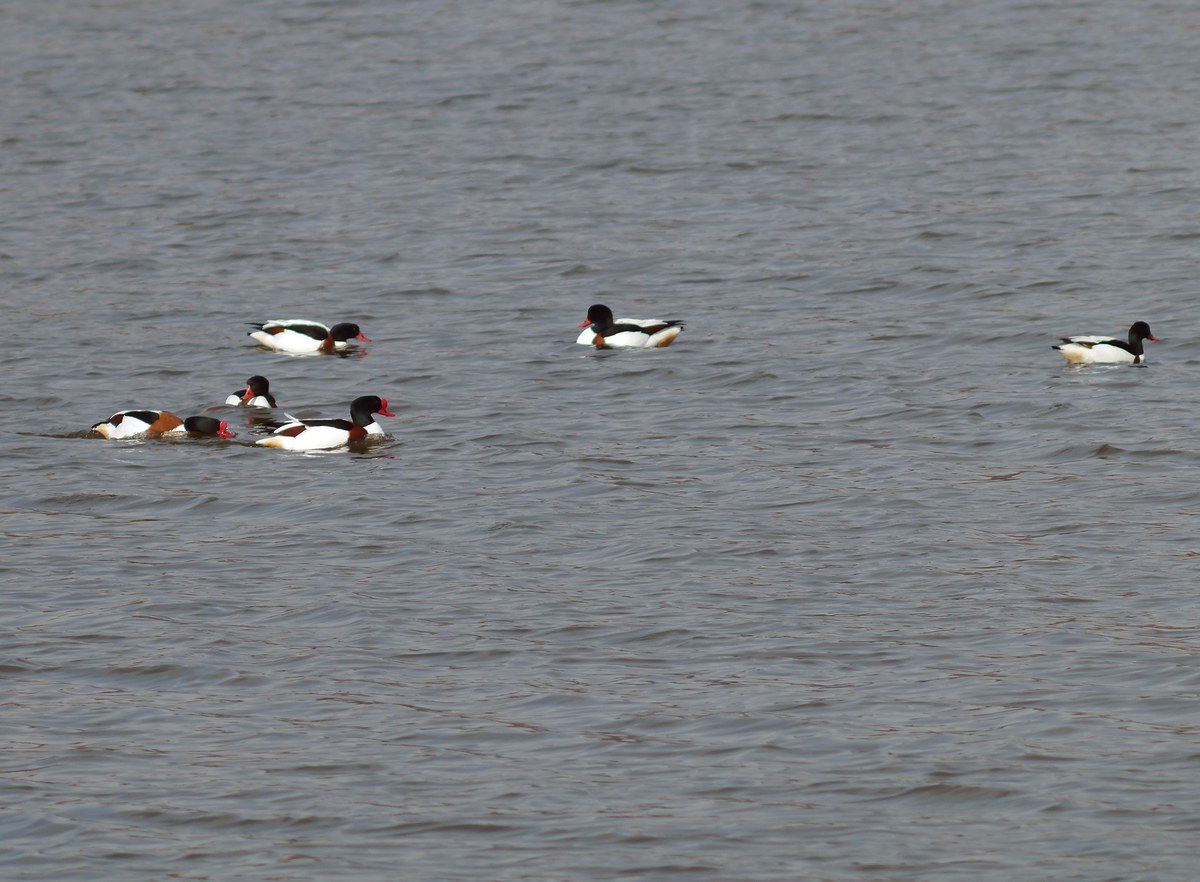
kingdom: Animalia
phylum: Chordata
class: Aves
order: Anseriformes
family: Anatidae
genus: Tadorna
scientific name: Tadorna tadorna
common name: Common shelduck
